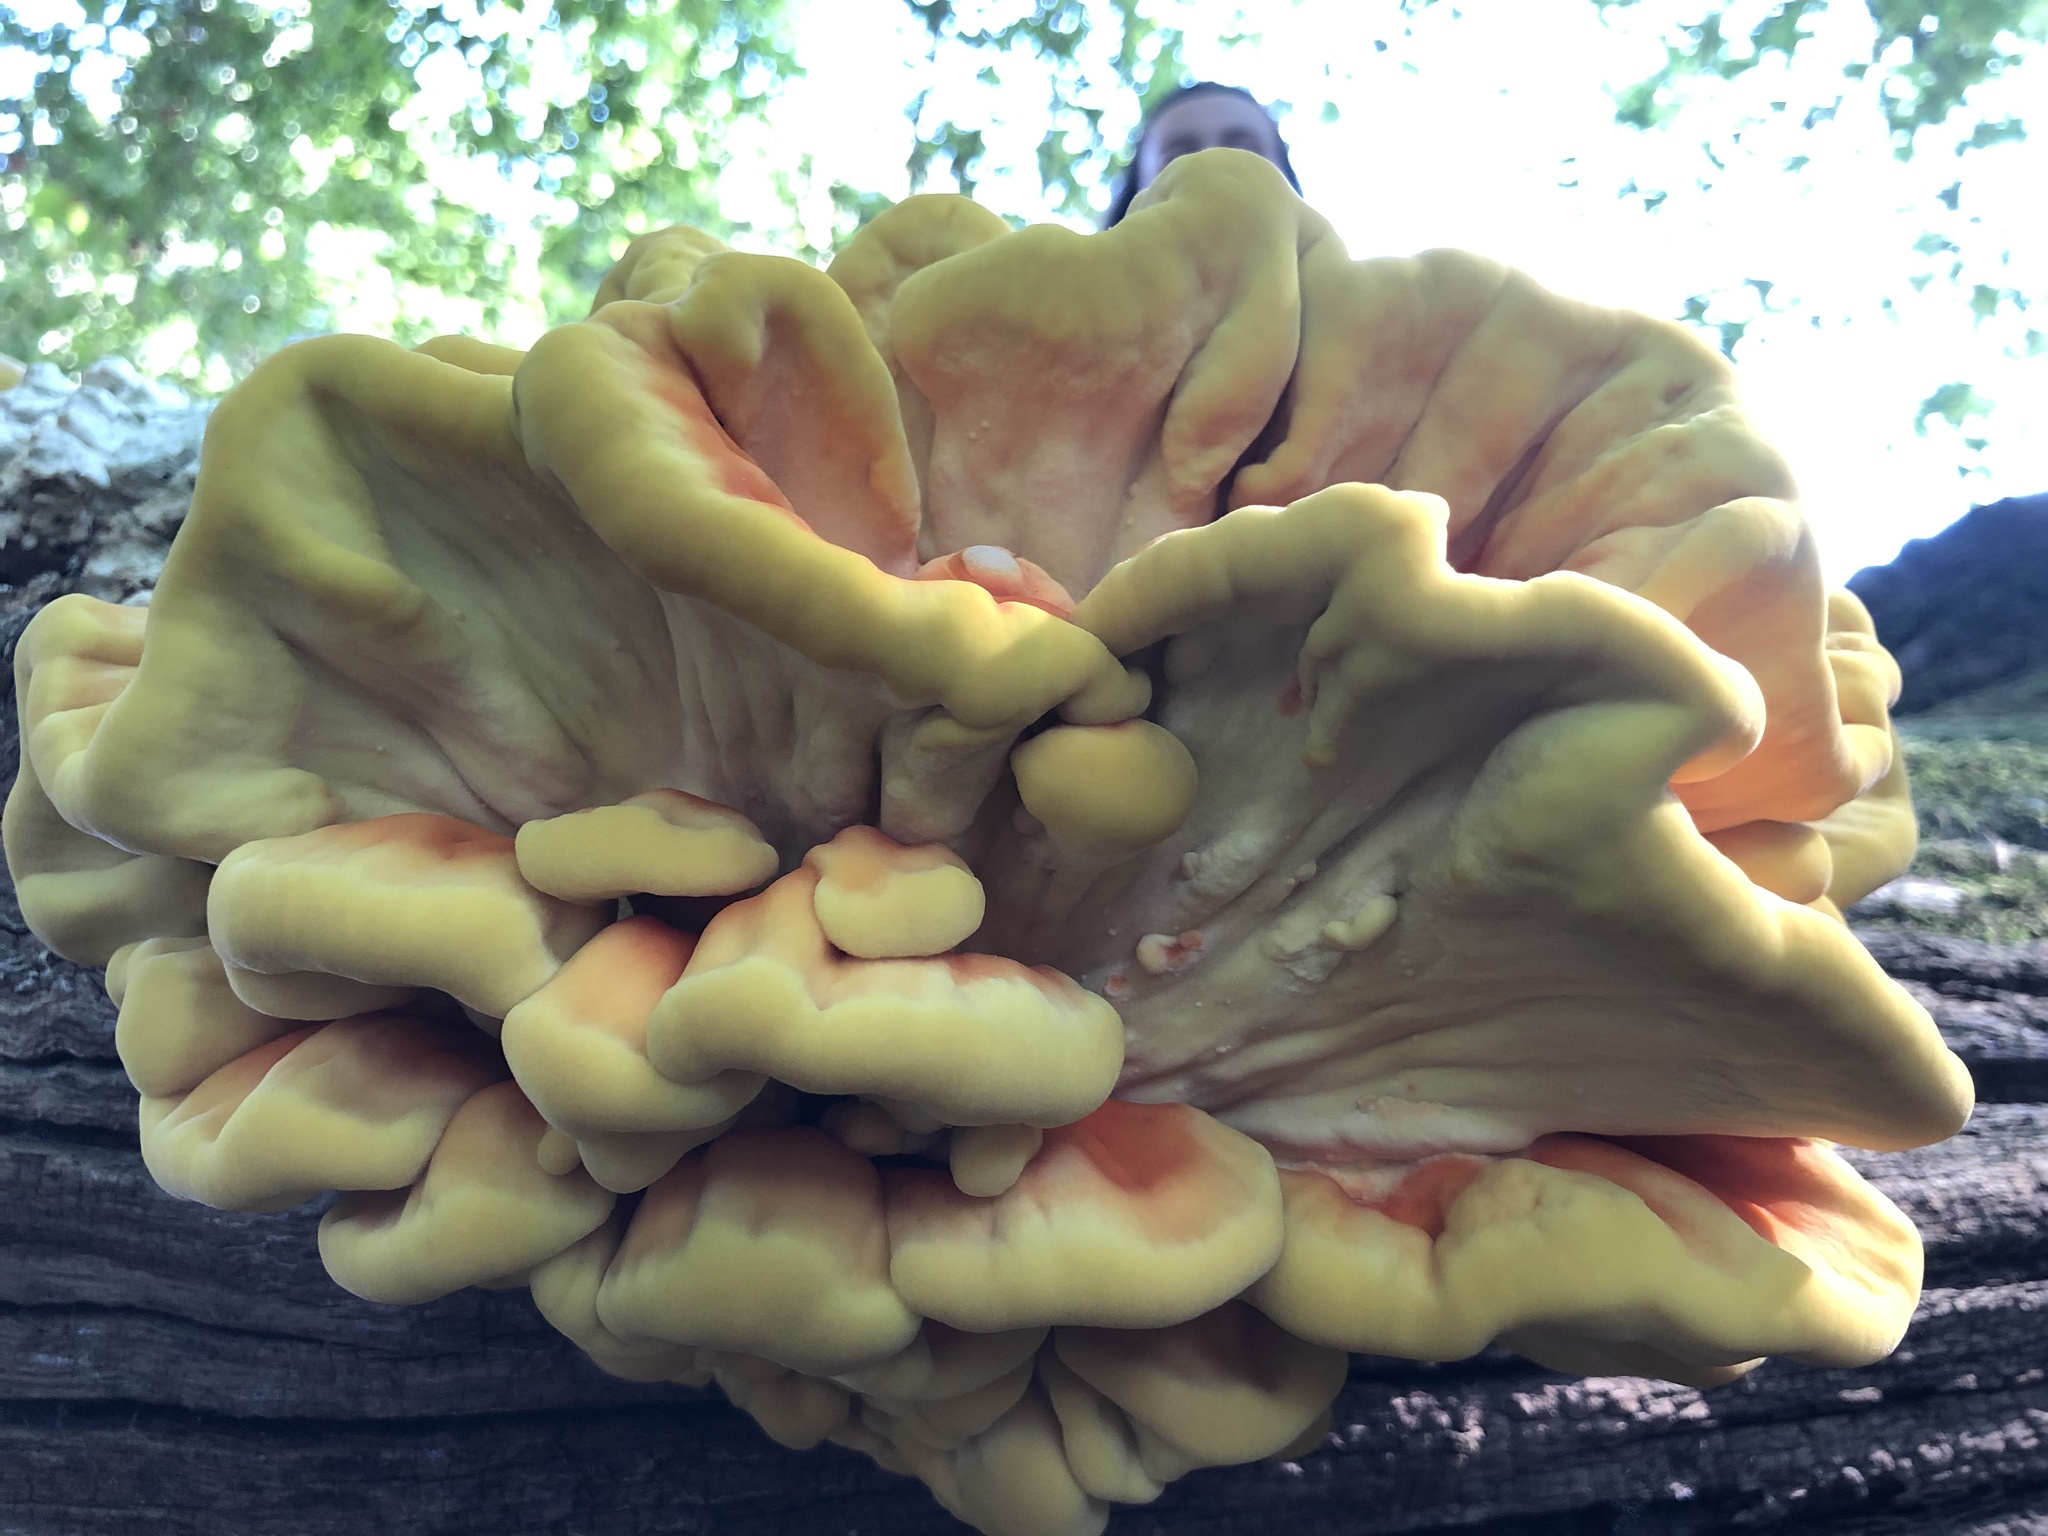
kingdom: Fungi
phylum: Basidiomycota
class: Agaricomycetes
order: Polyporales
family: Laetiporaceae
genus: Laetiporus
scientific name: Laetiporus sulphureus
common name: Chicken of the woods
